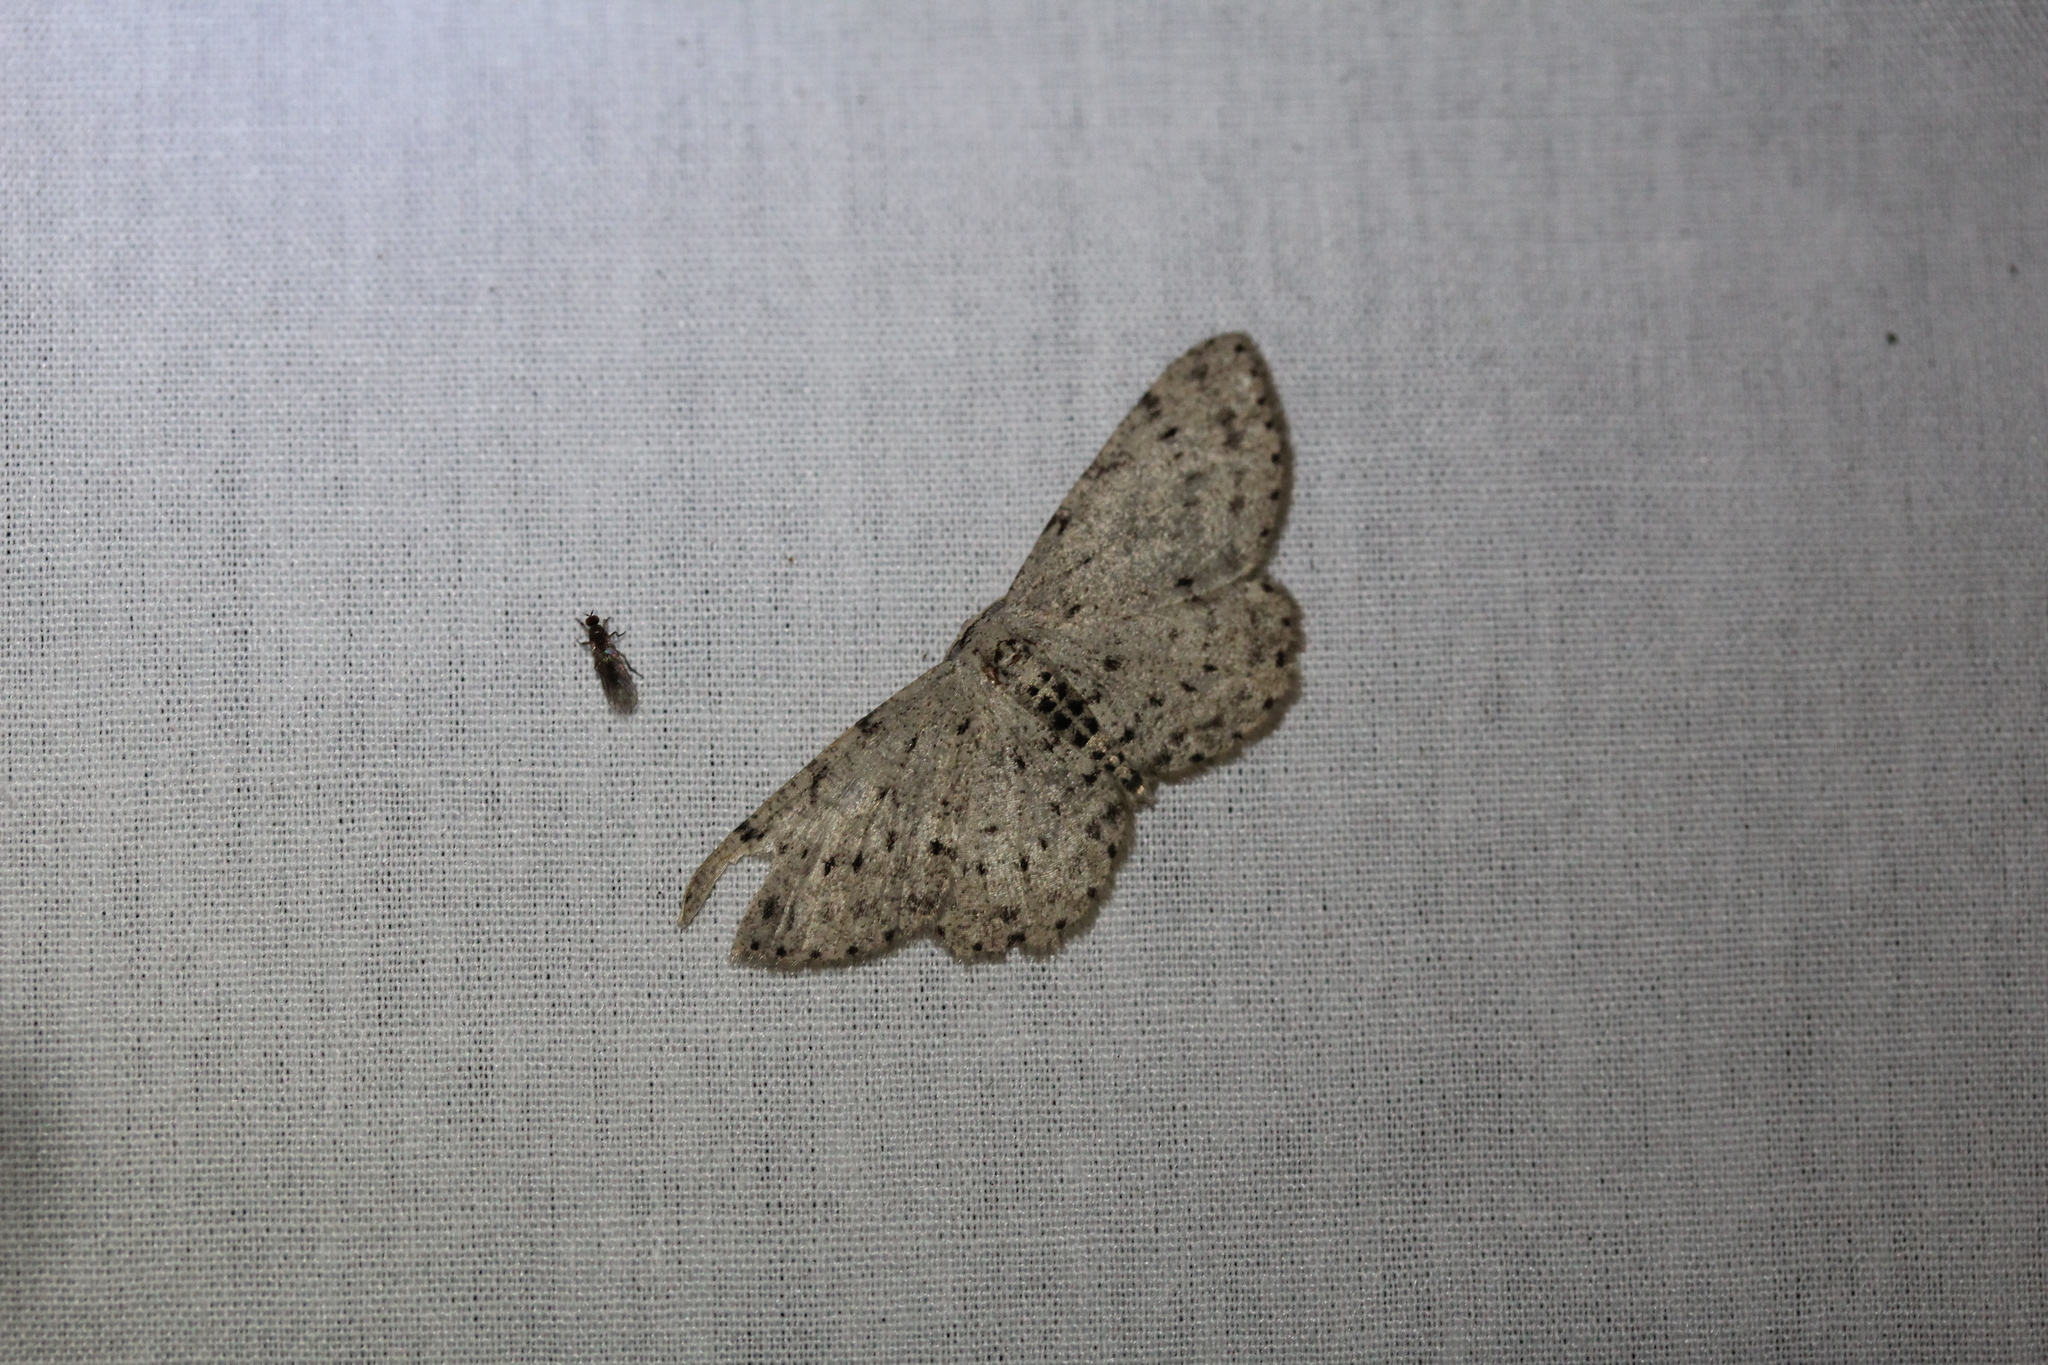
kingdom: Animalia
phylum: Arthropoda
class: Insecta
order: Lepidoptera
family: Geometridae
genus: Glena
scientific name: Glena cribrataria
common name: Dotted gray
